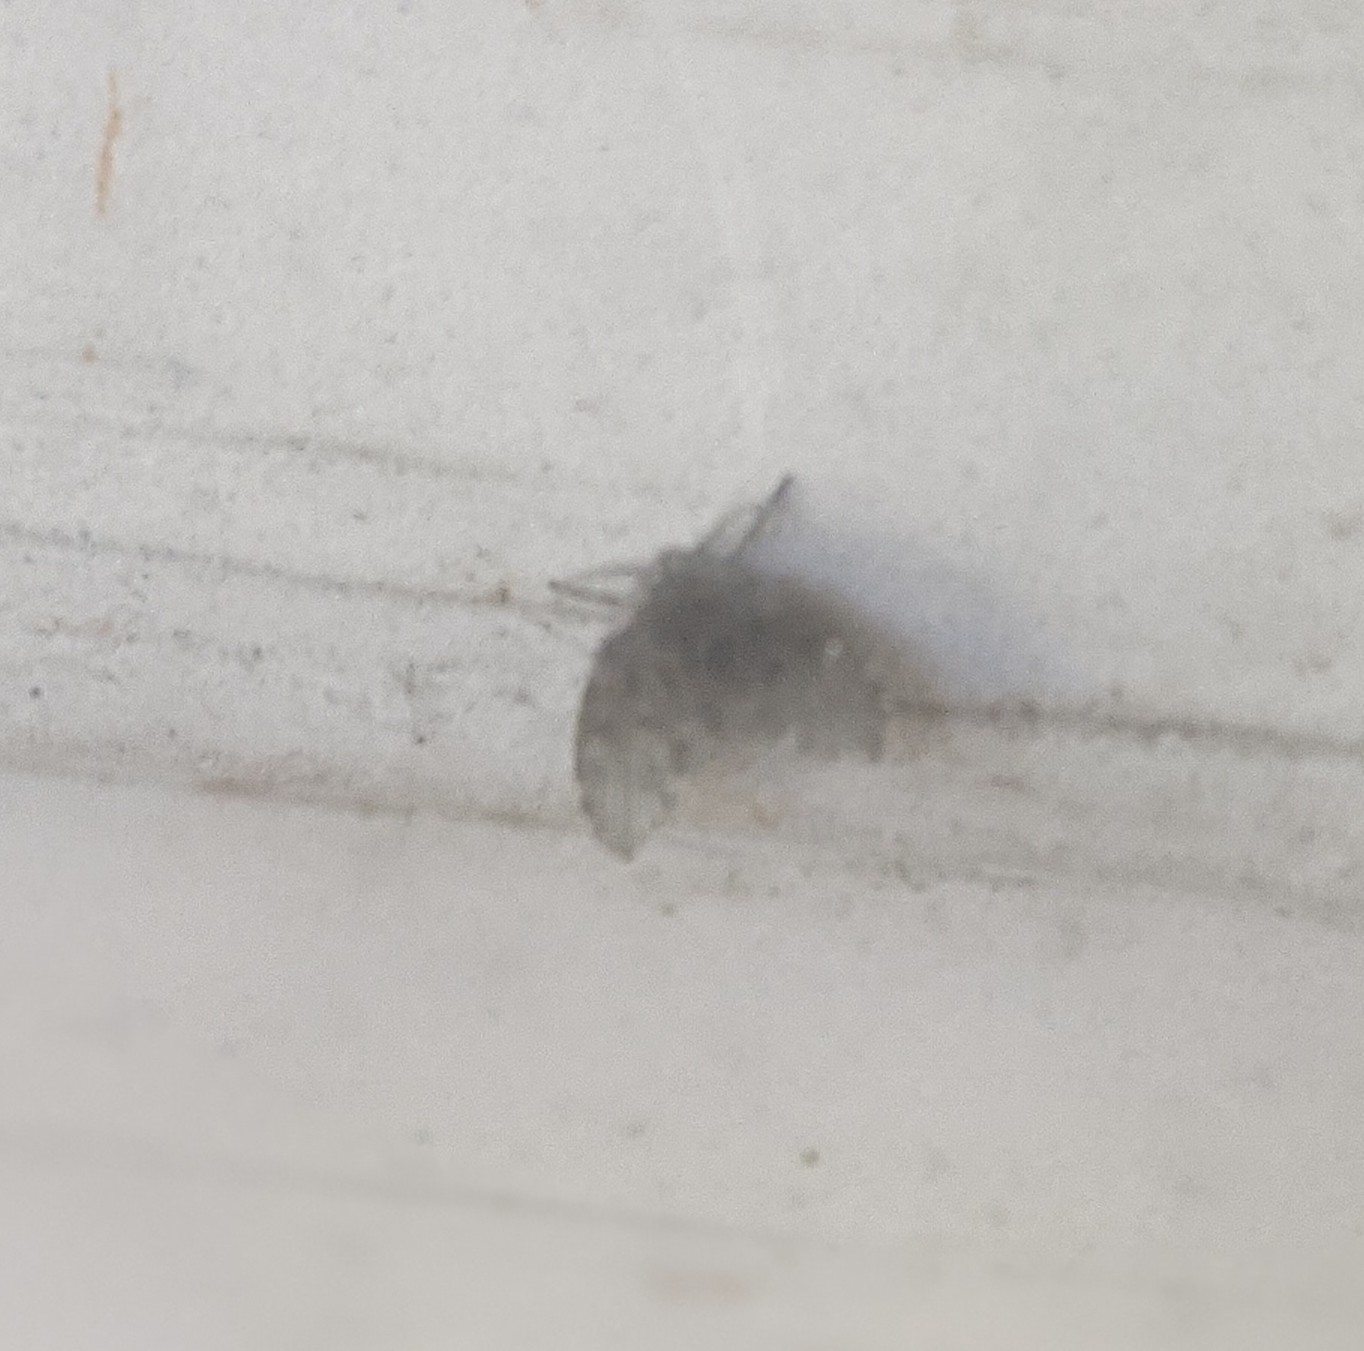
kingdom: Animalia
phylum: Arthropoda
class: Insecta
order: Diptera
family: Psychodidae
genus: Clogmia
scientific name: Clogmia albipunctatus
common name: White-spotted moth fly
